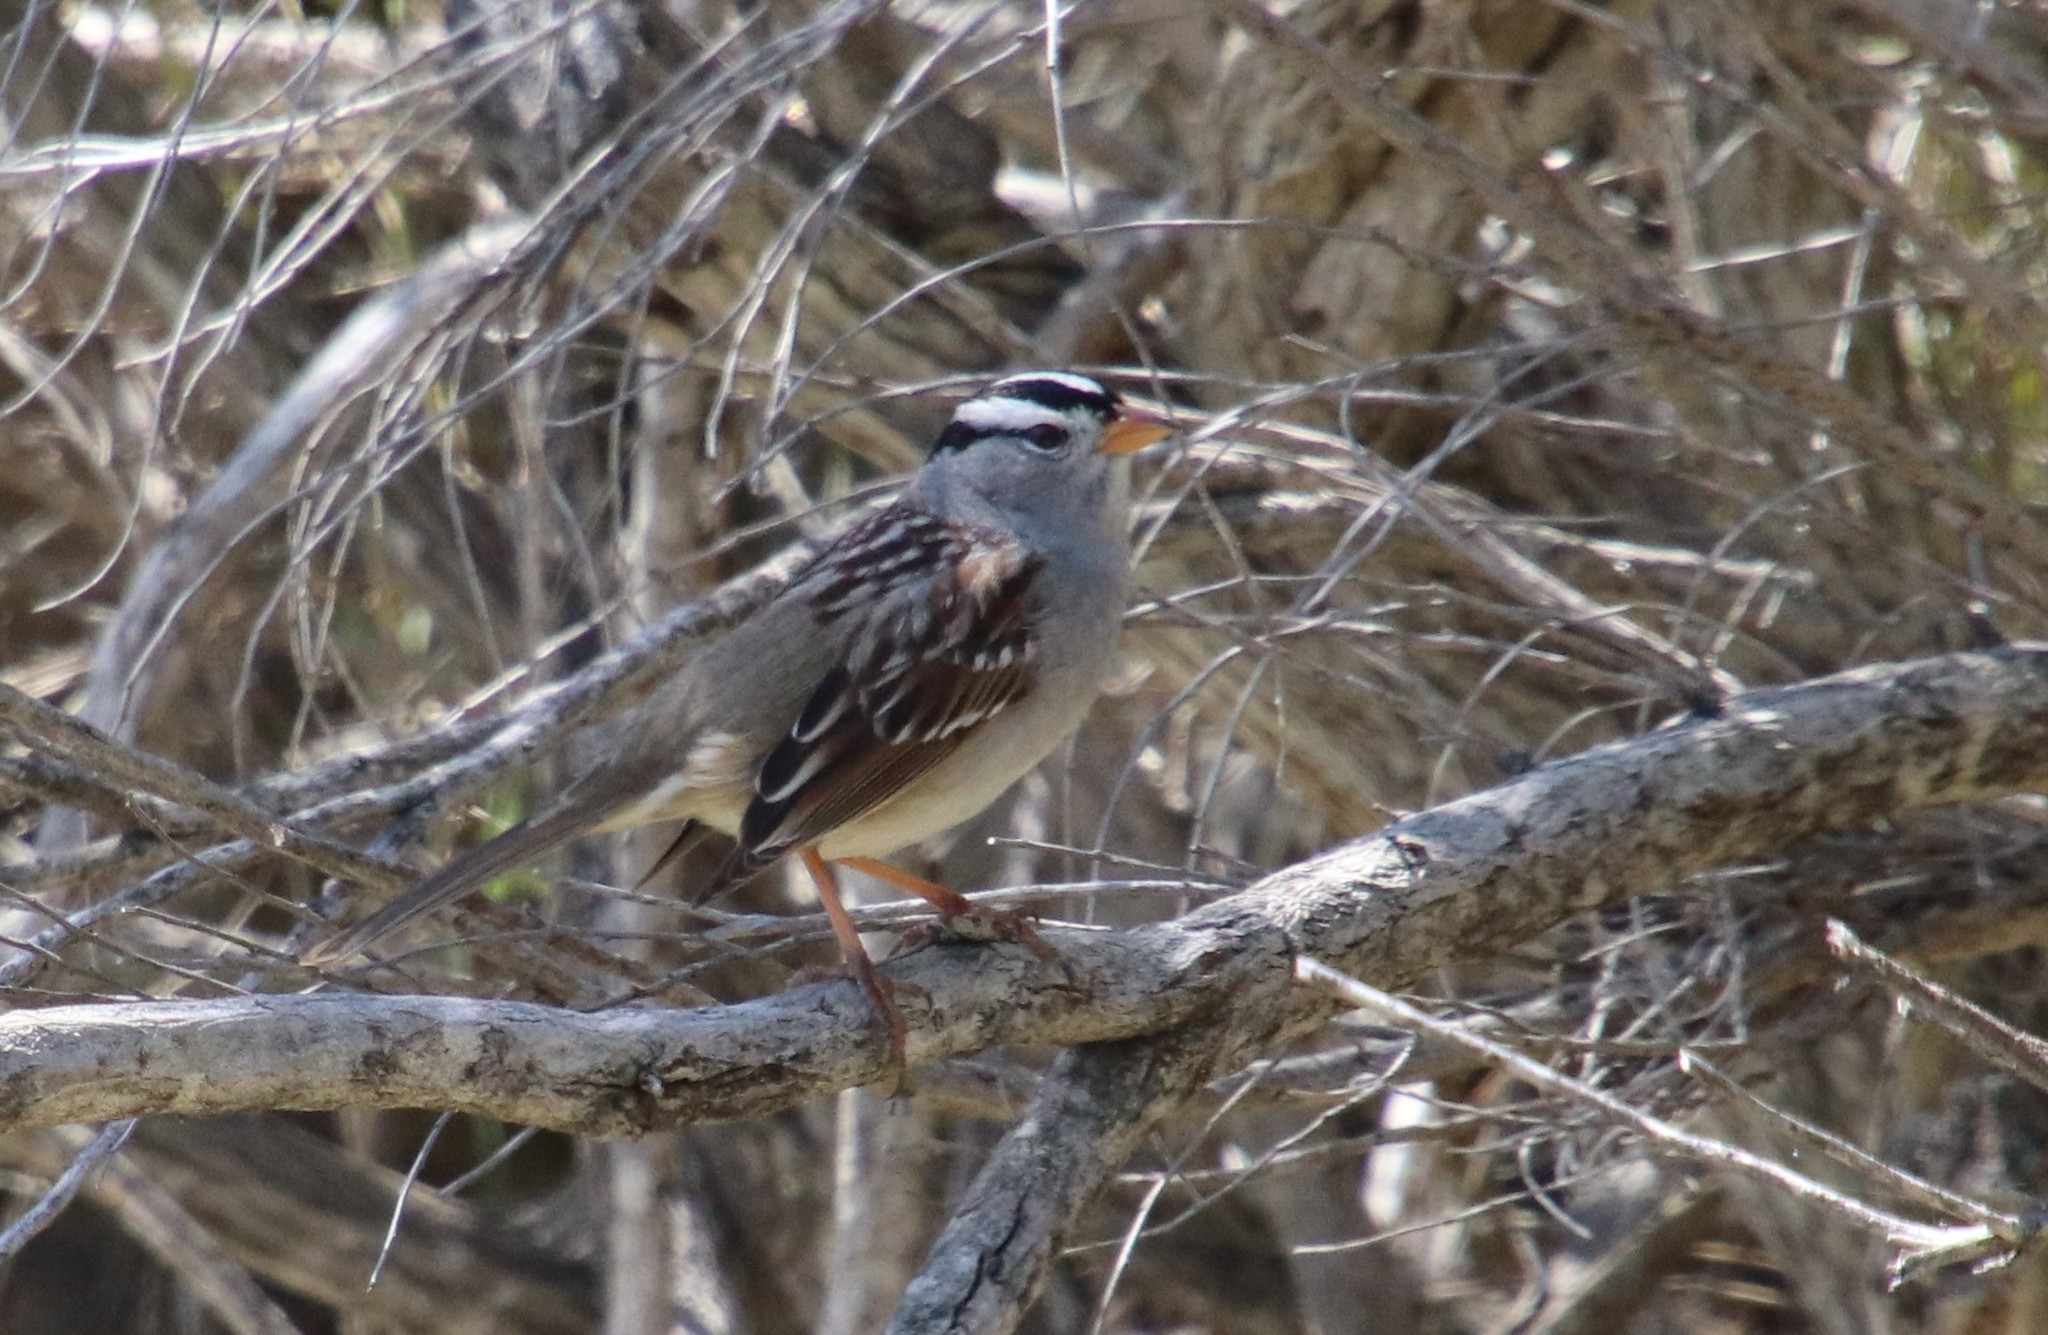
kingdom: Animalia
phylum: Chordata
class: Aves
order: Passeriformes
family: Passerellidae
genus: Zonotrichia
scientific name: Zonotrichia leucophrys
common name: White-crowned sparrow
